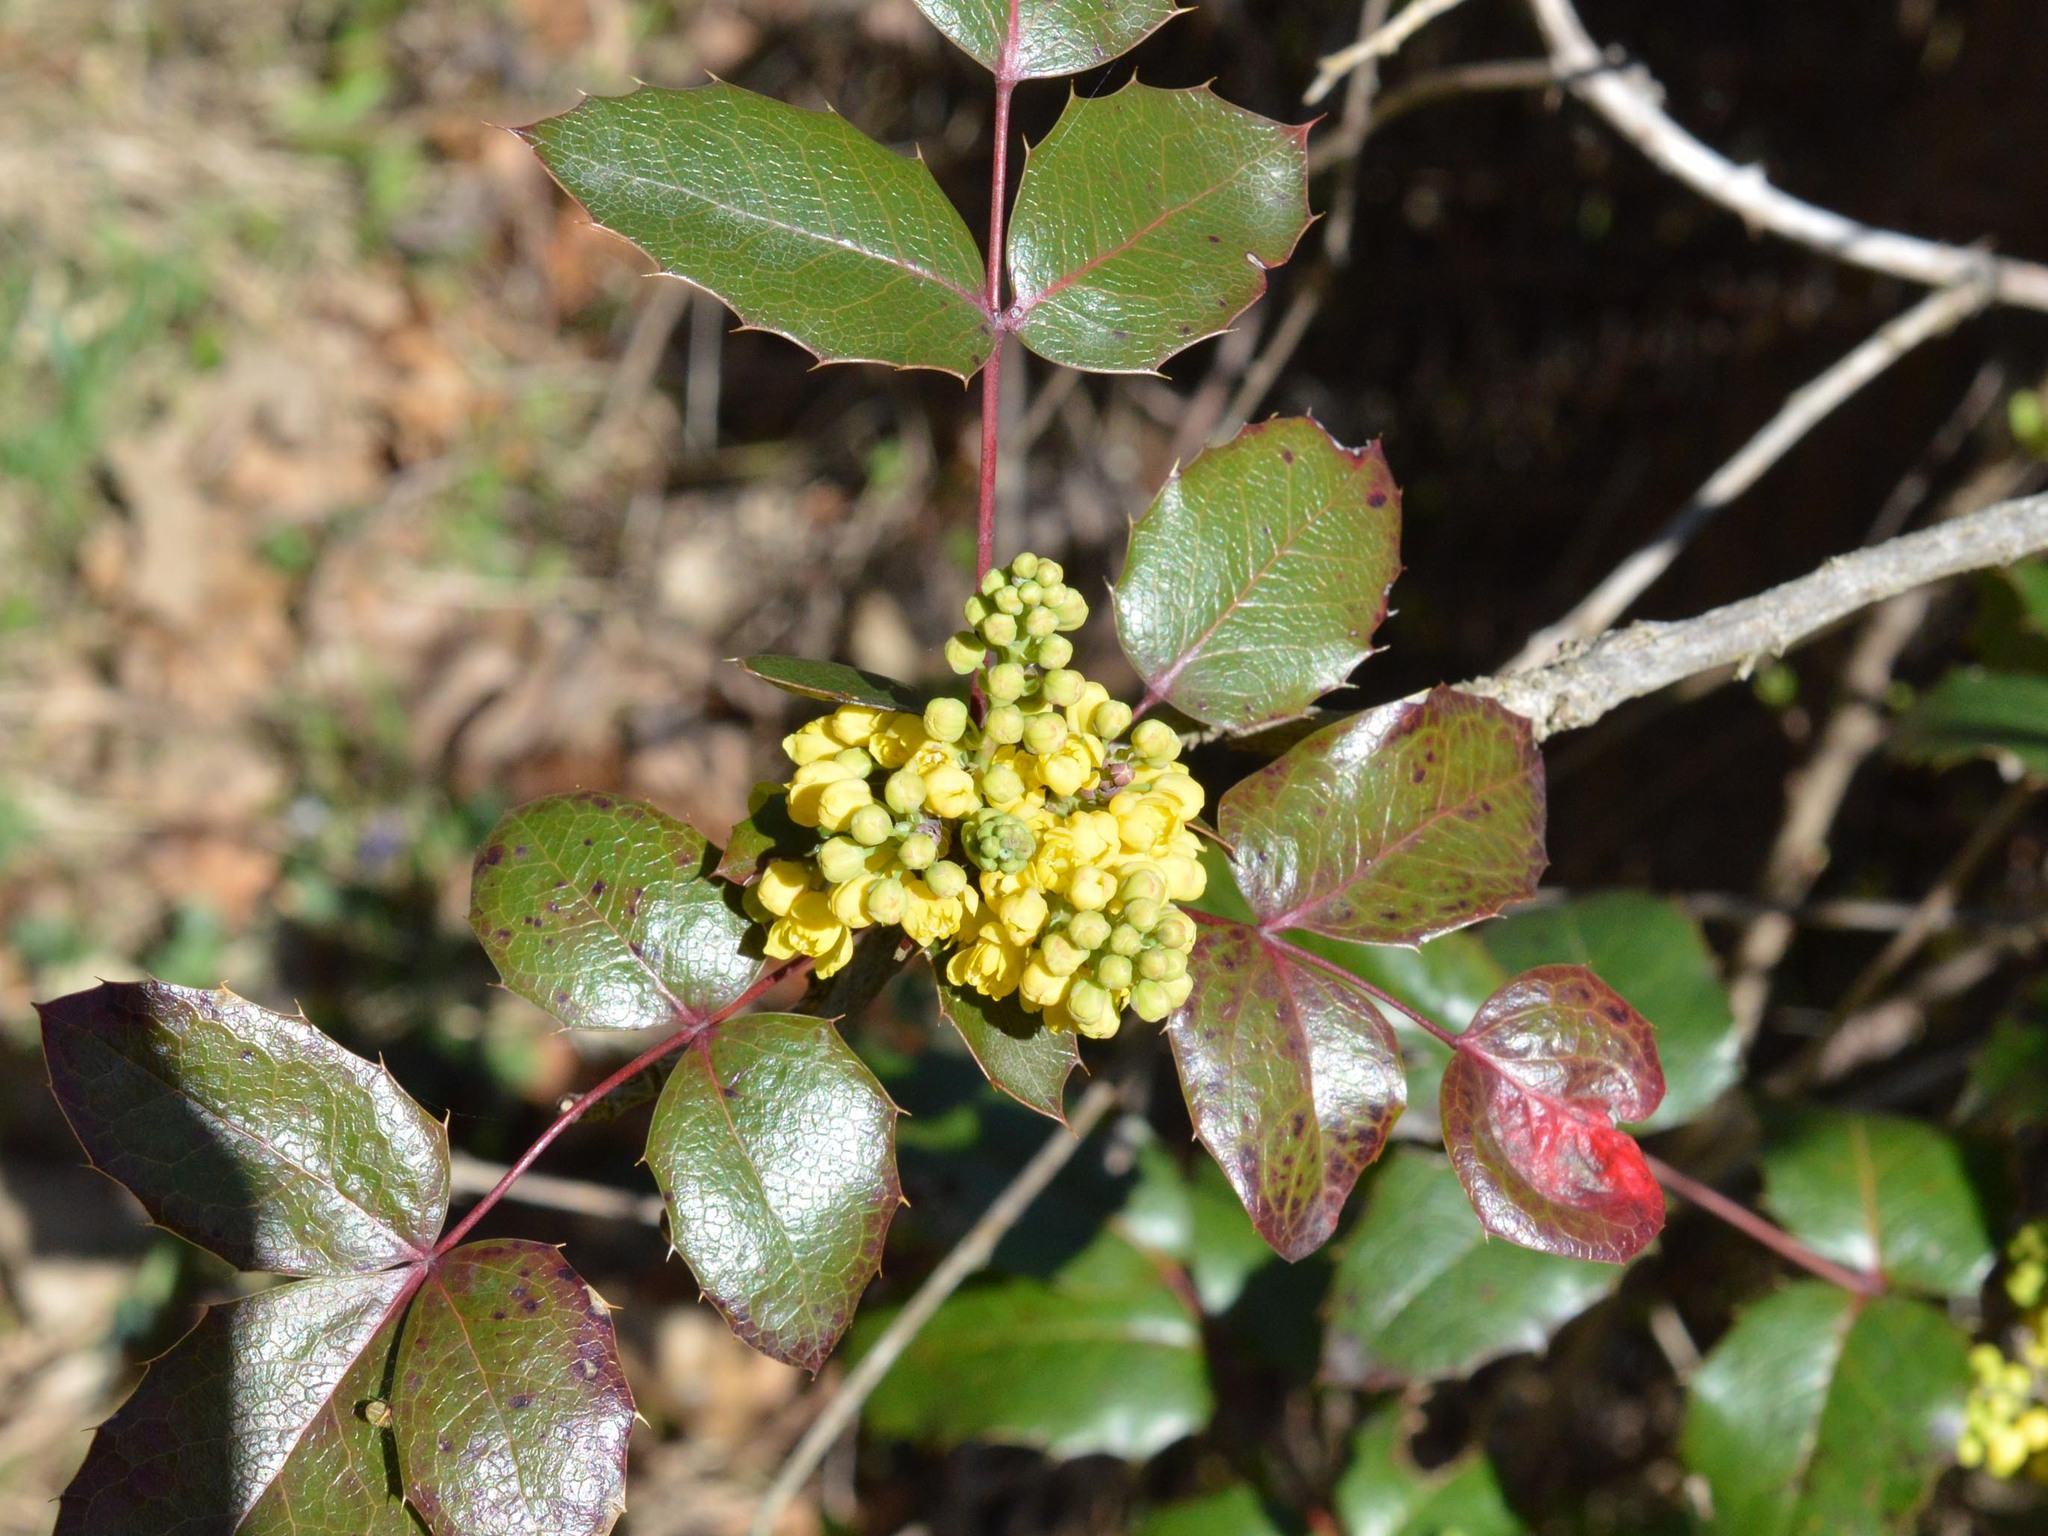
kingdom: Plantae
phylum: Tracheophyta
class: Magnoliopsida
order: Ranunculales
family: Berberidaceae
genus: Mahonia
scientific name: Mahonia aquifolium
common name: Oregon-grape
